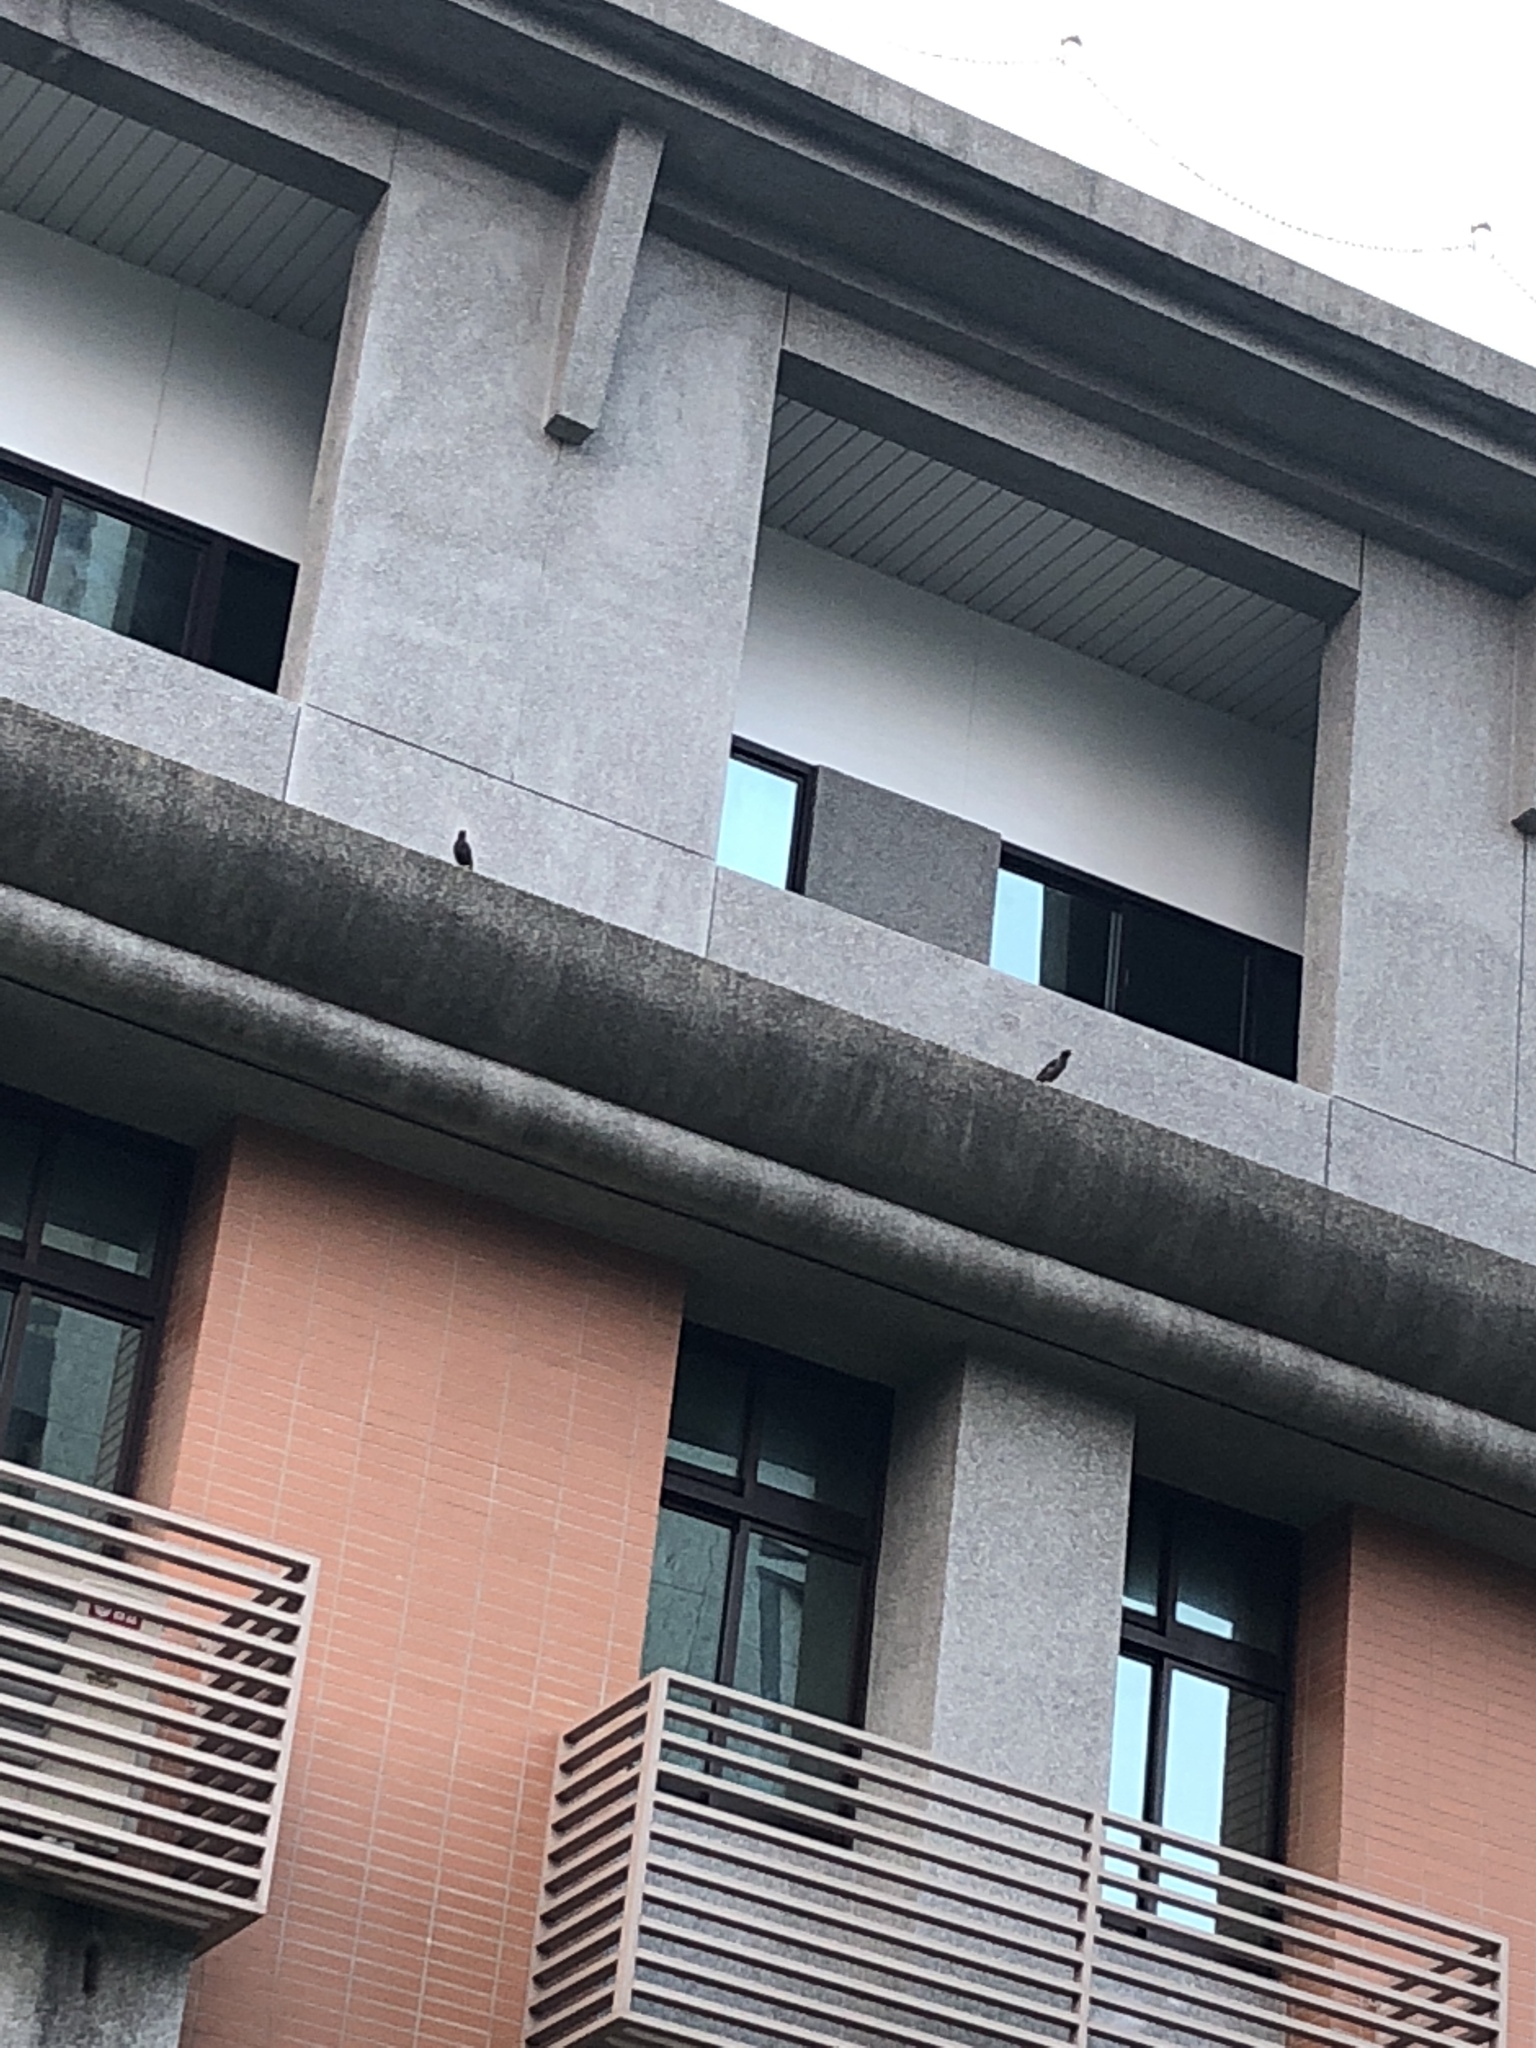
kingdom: Animalia
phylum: Chordata
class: Aves
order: Passeriformes
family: Sturnidae
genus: Acridotheres
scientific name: Acridotheres javanicus
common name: Javan myna
